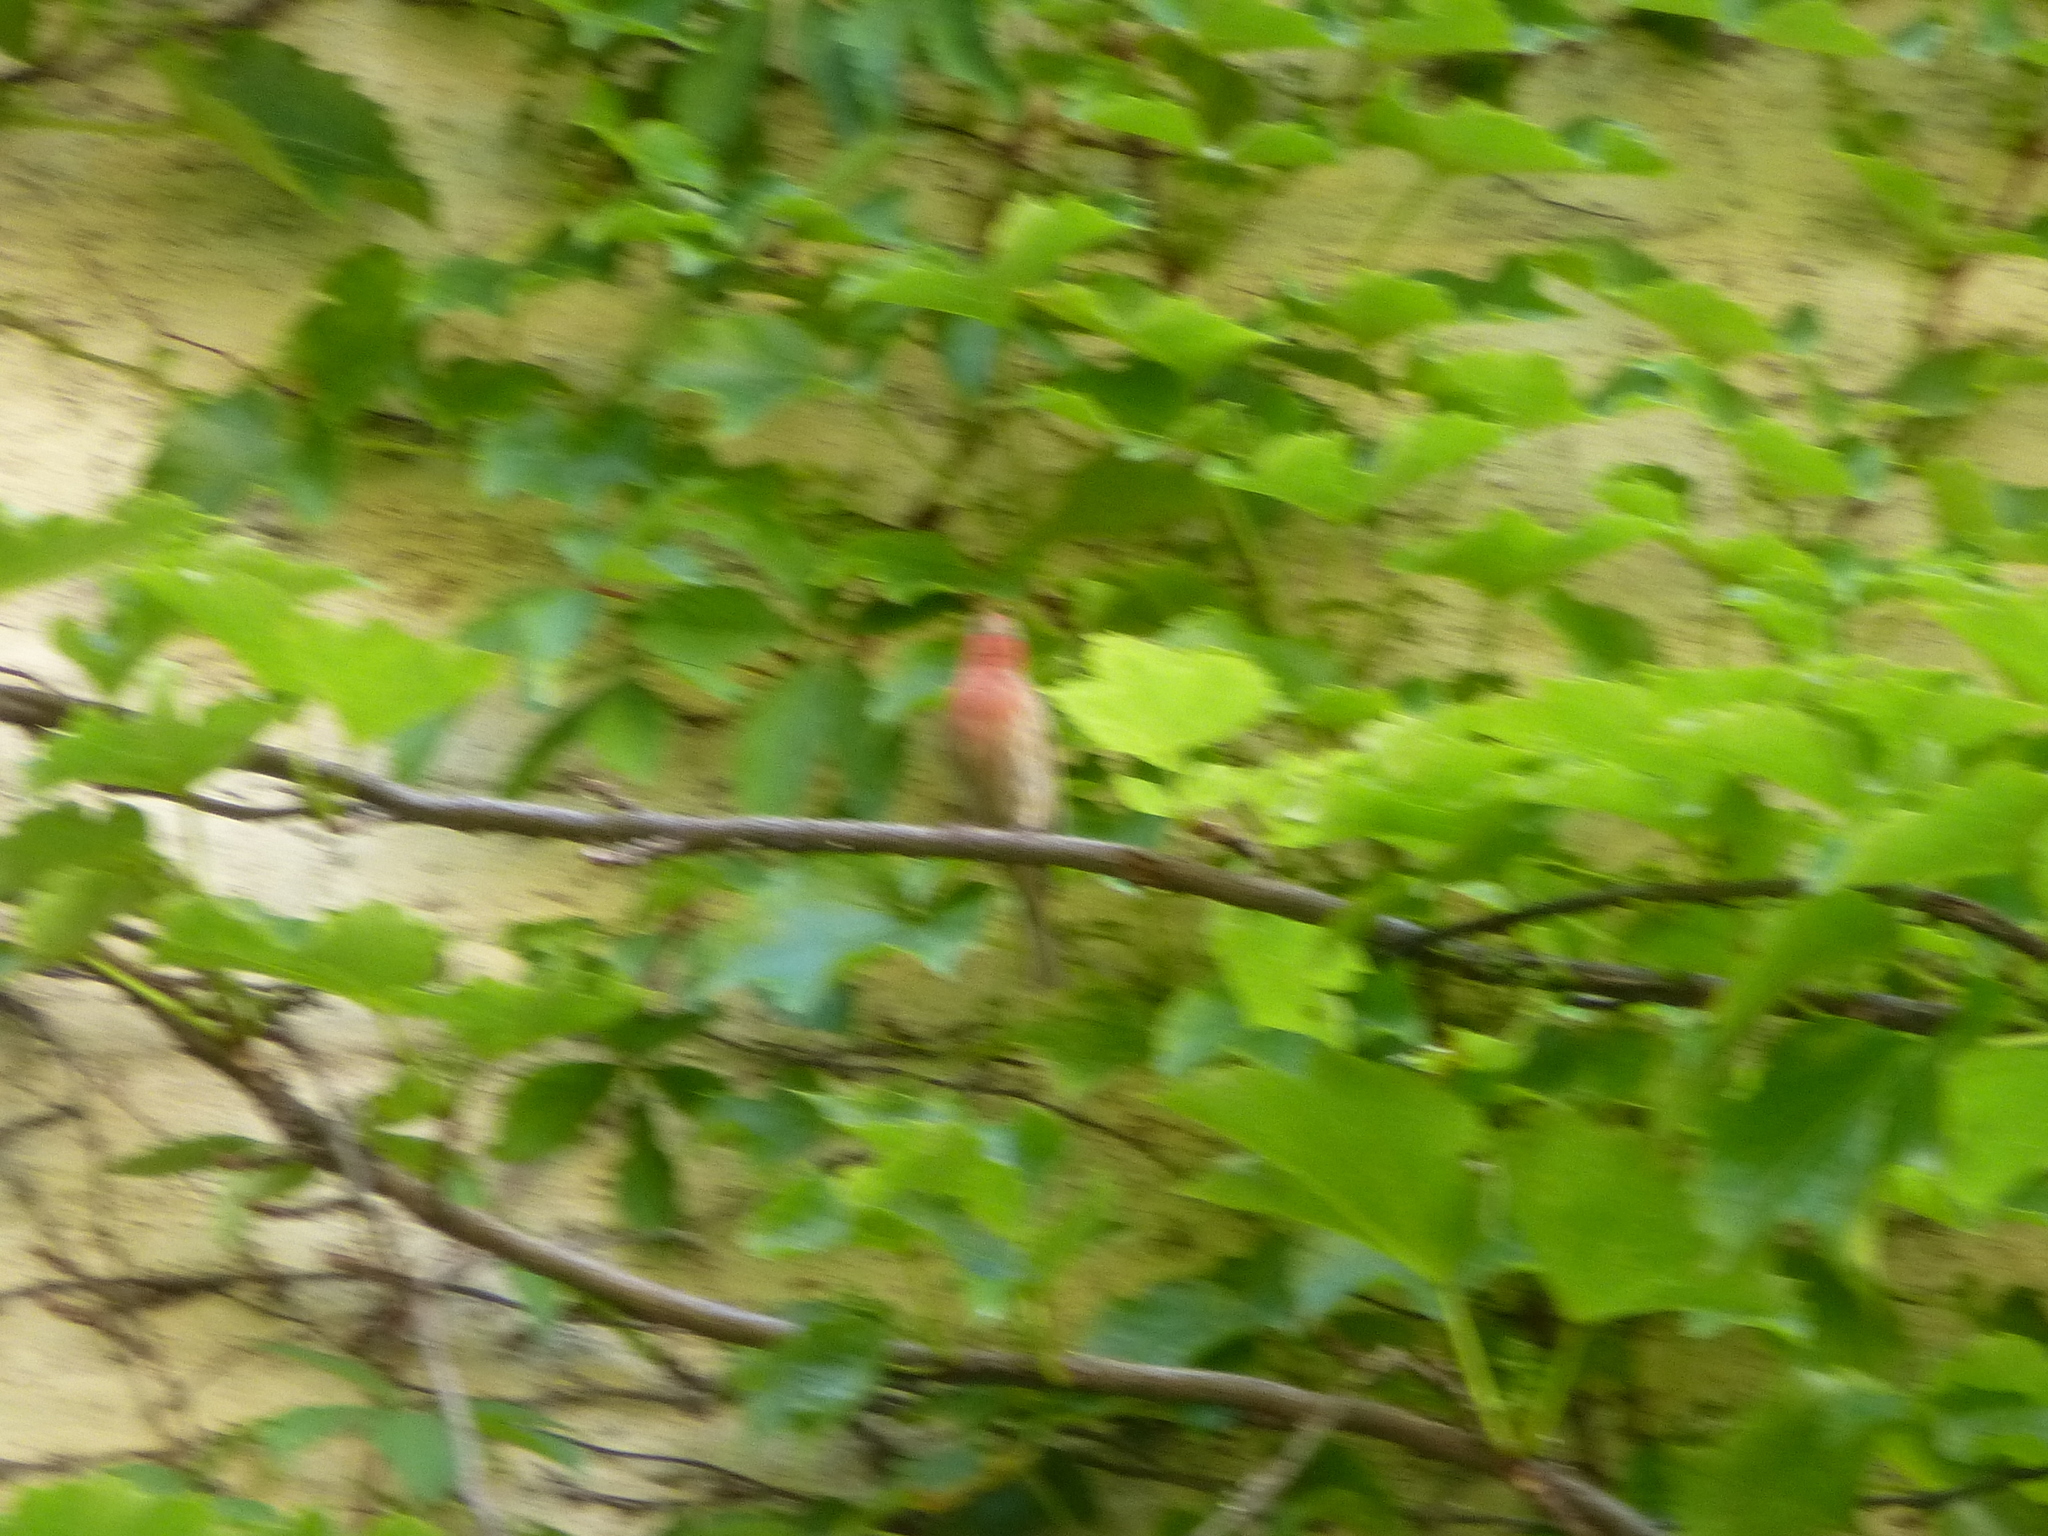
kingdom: Animalia
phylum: Chordata
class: Aves
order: Passeriformes
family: Fringillidae
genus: Haemorhous
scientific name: Haemorhous mexicanus
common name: House finch
